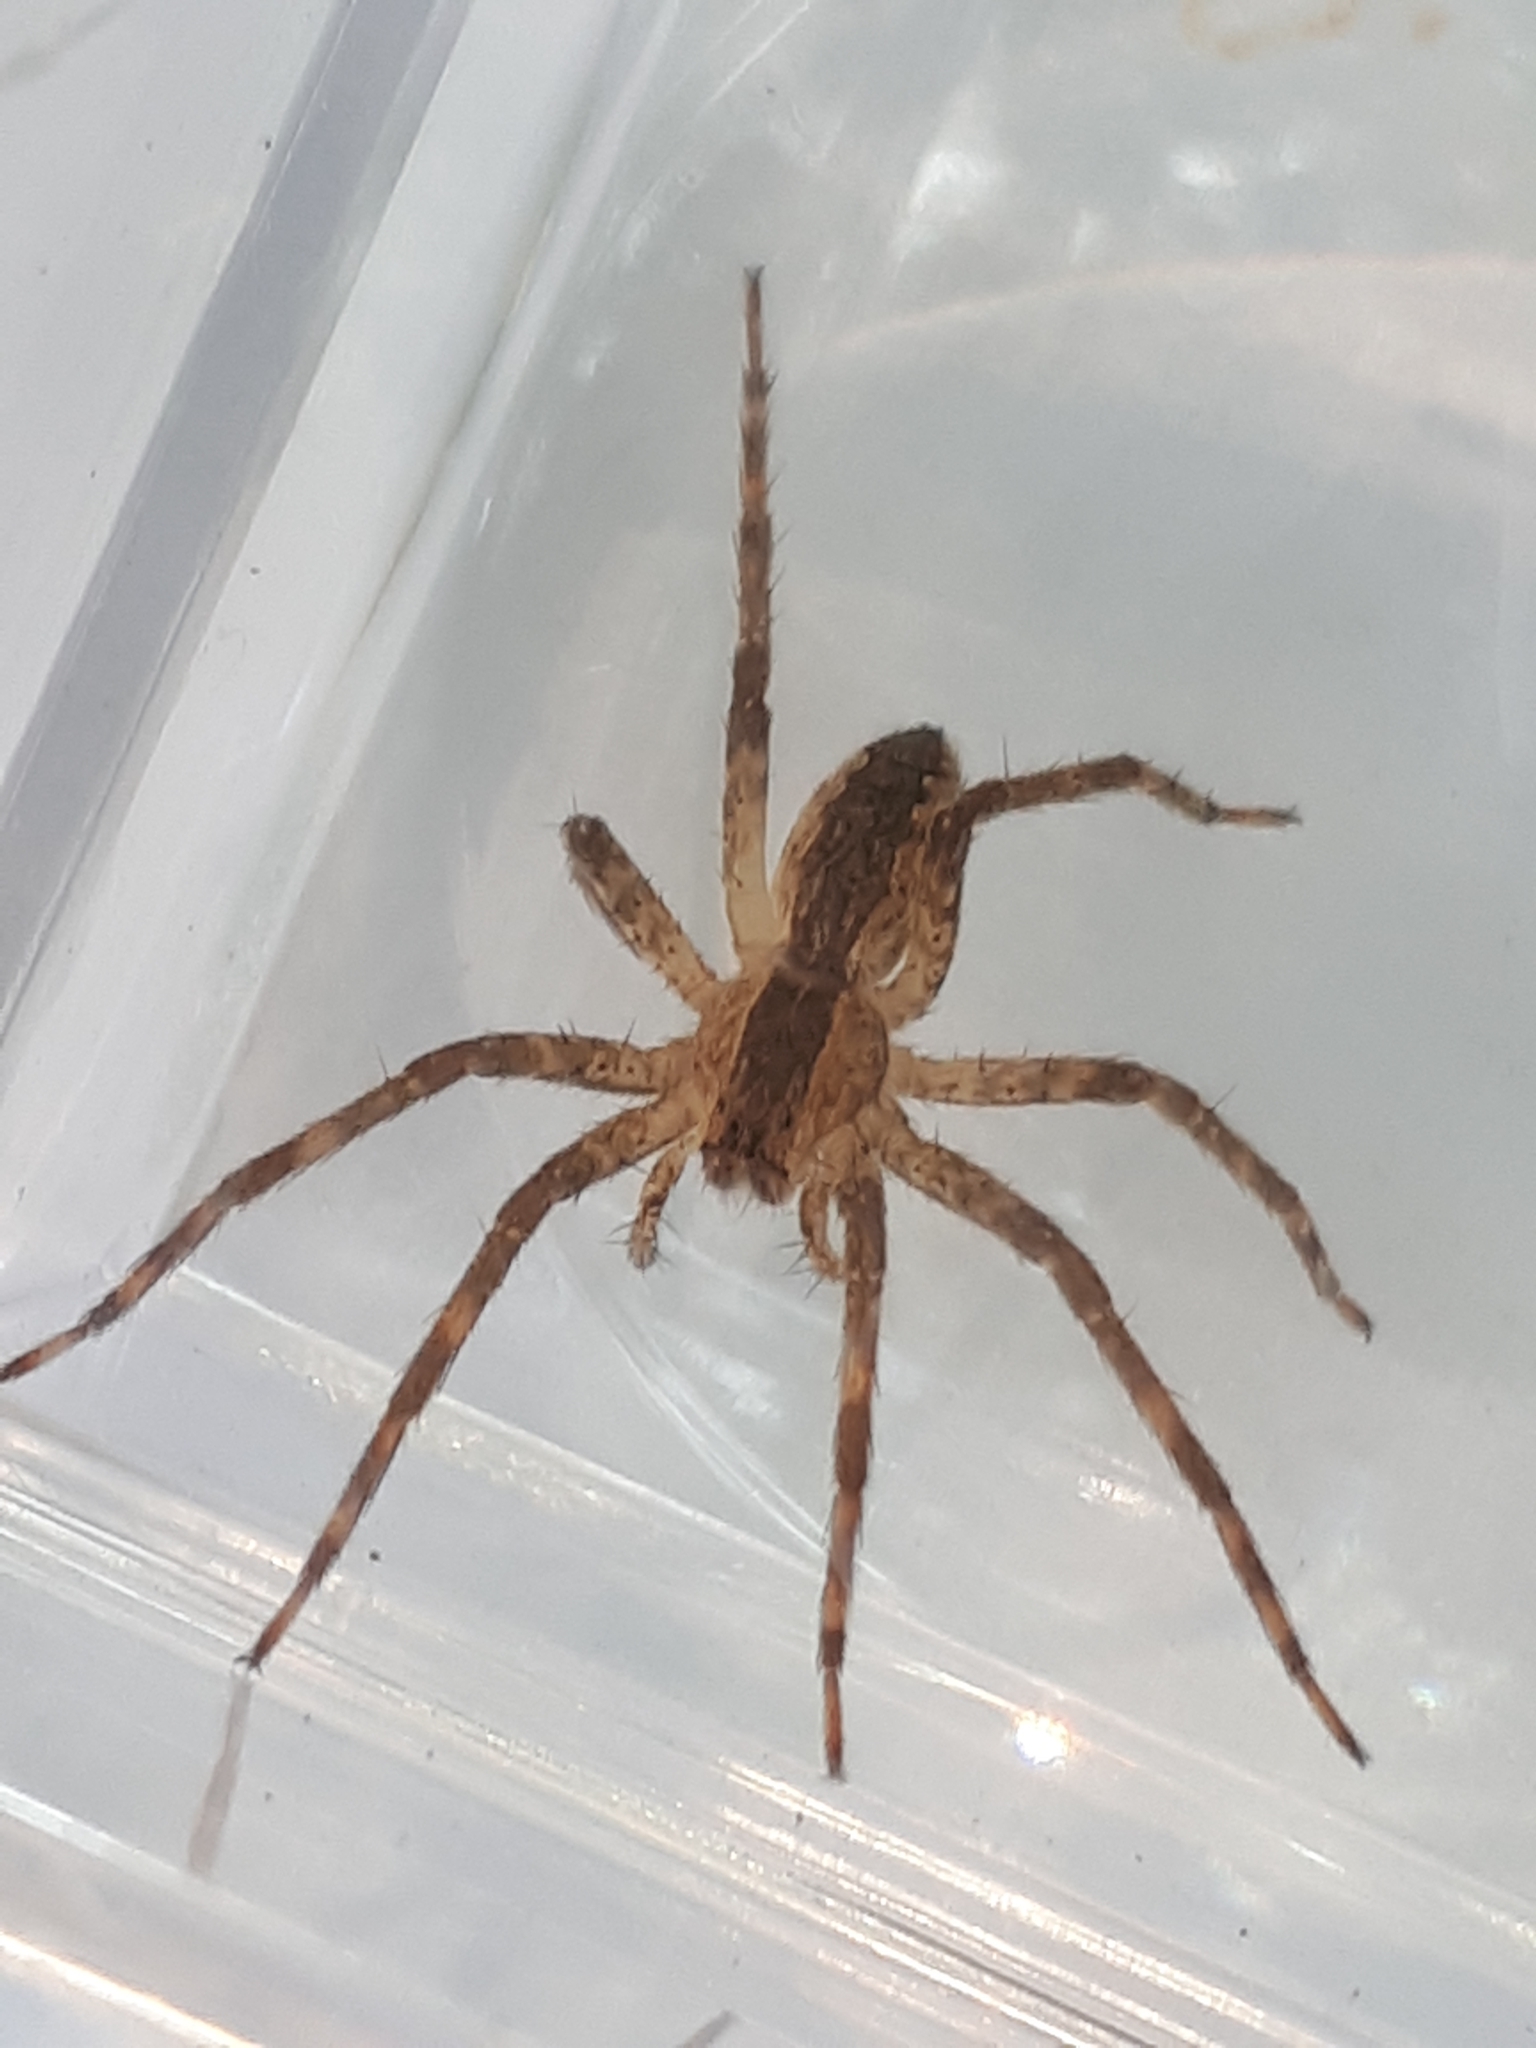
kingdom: Animalia
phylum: Arthropoda
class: Arachnida
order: Araneae
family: Pisauridae
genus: Pisaurina
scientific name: Pisaurina mira
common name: American nursery web spider
